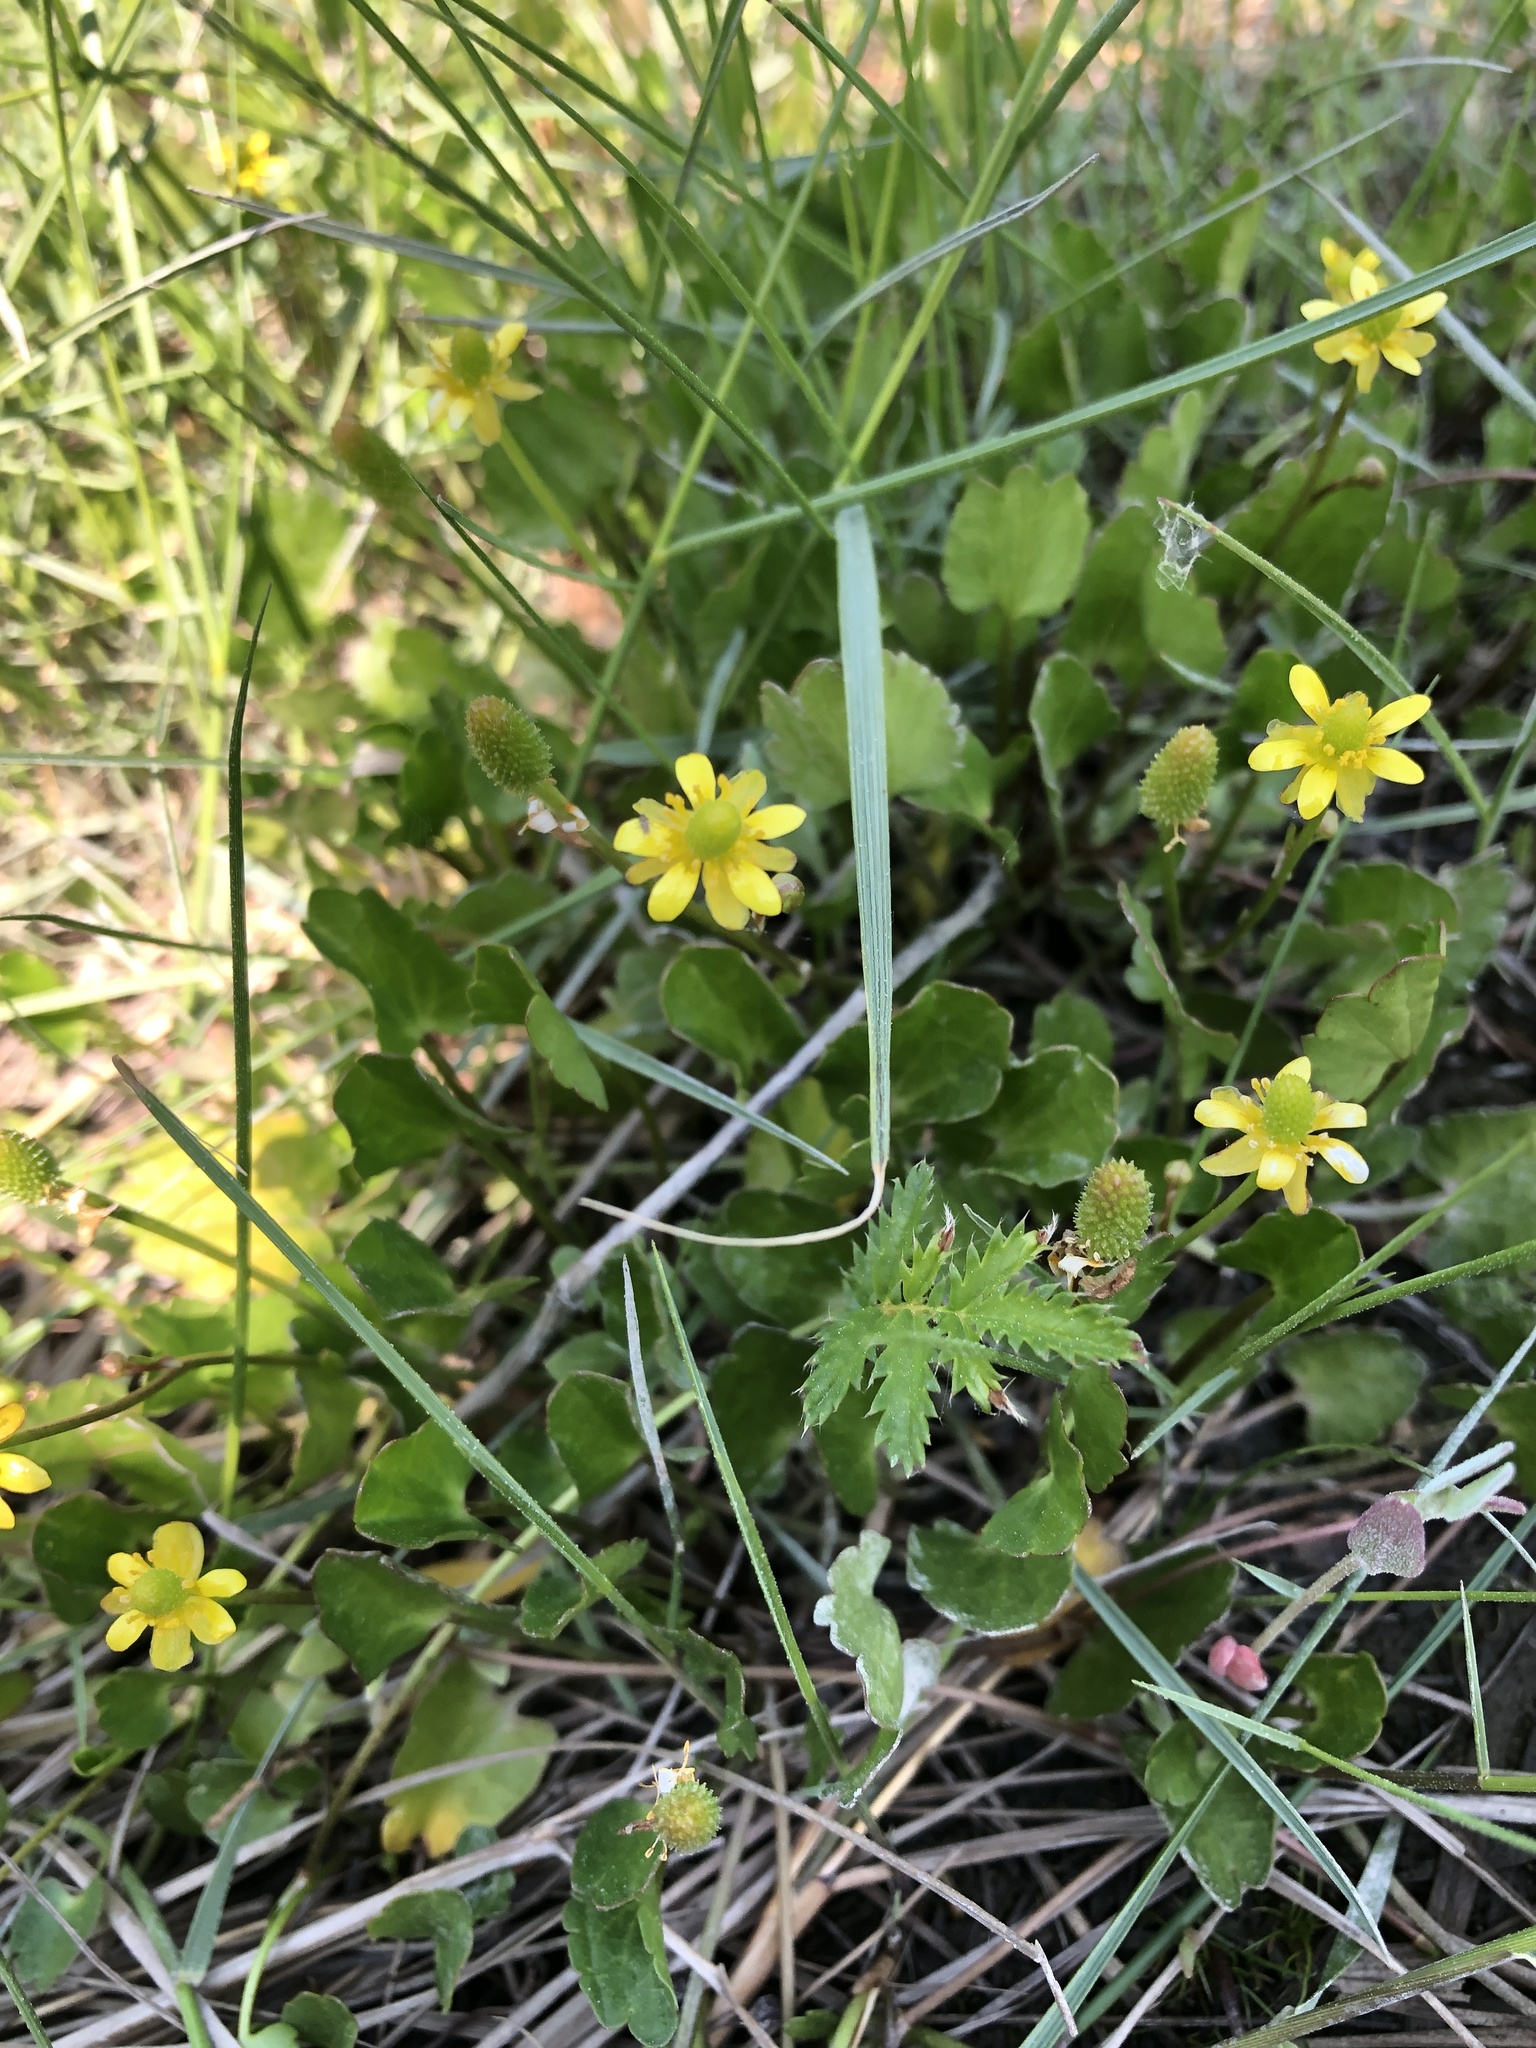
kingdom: Plantae
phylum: Tracheophyta
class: Magnoliopsida
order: Ranunculales
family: Ranunculaceae
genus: Halerpestes
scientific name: Halerpestes cymbalaria
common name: Seaside crowfoot
